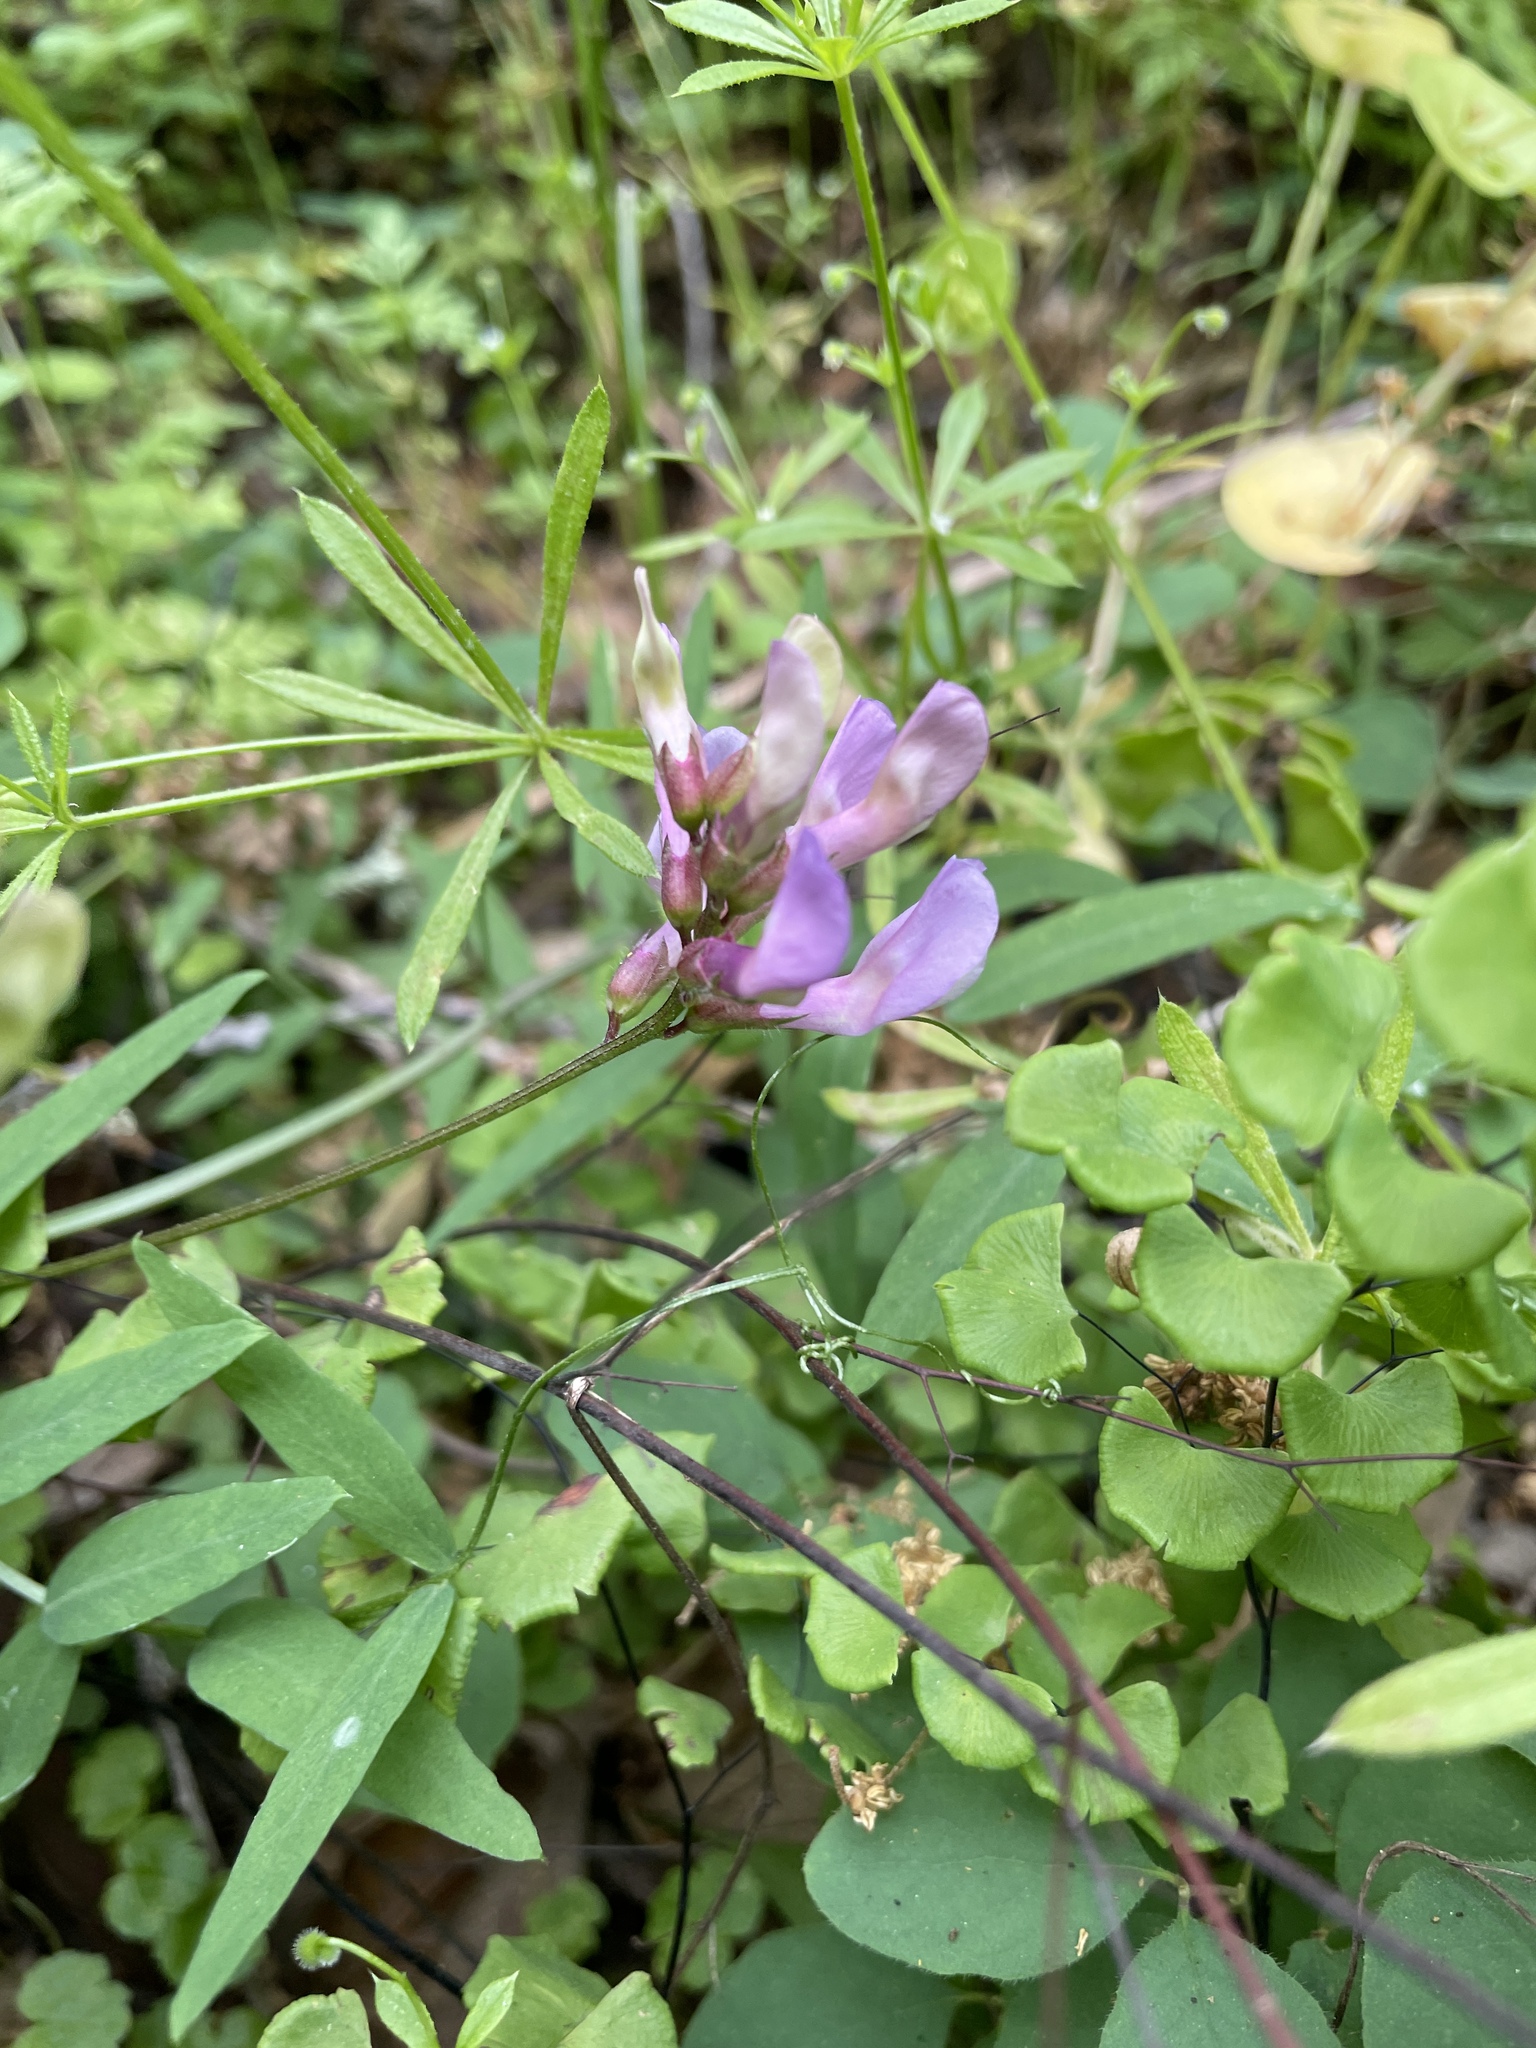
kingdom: Plantae
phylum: Tracheophyta
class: Magnoliopsida
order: Fabales
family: Fabaceae
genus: Vicia
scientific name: Vicia americana
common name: American vetch
